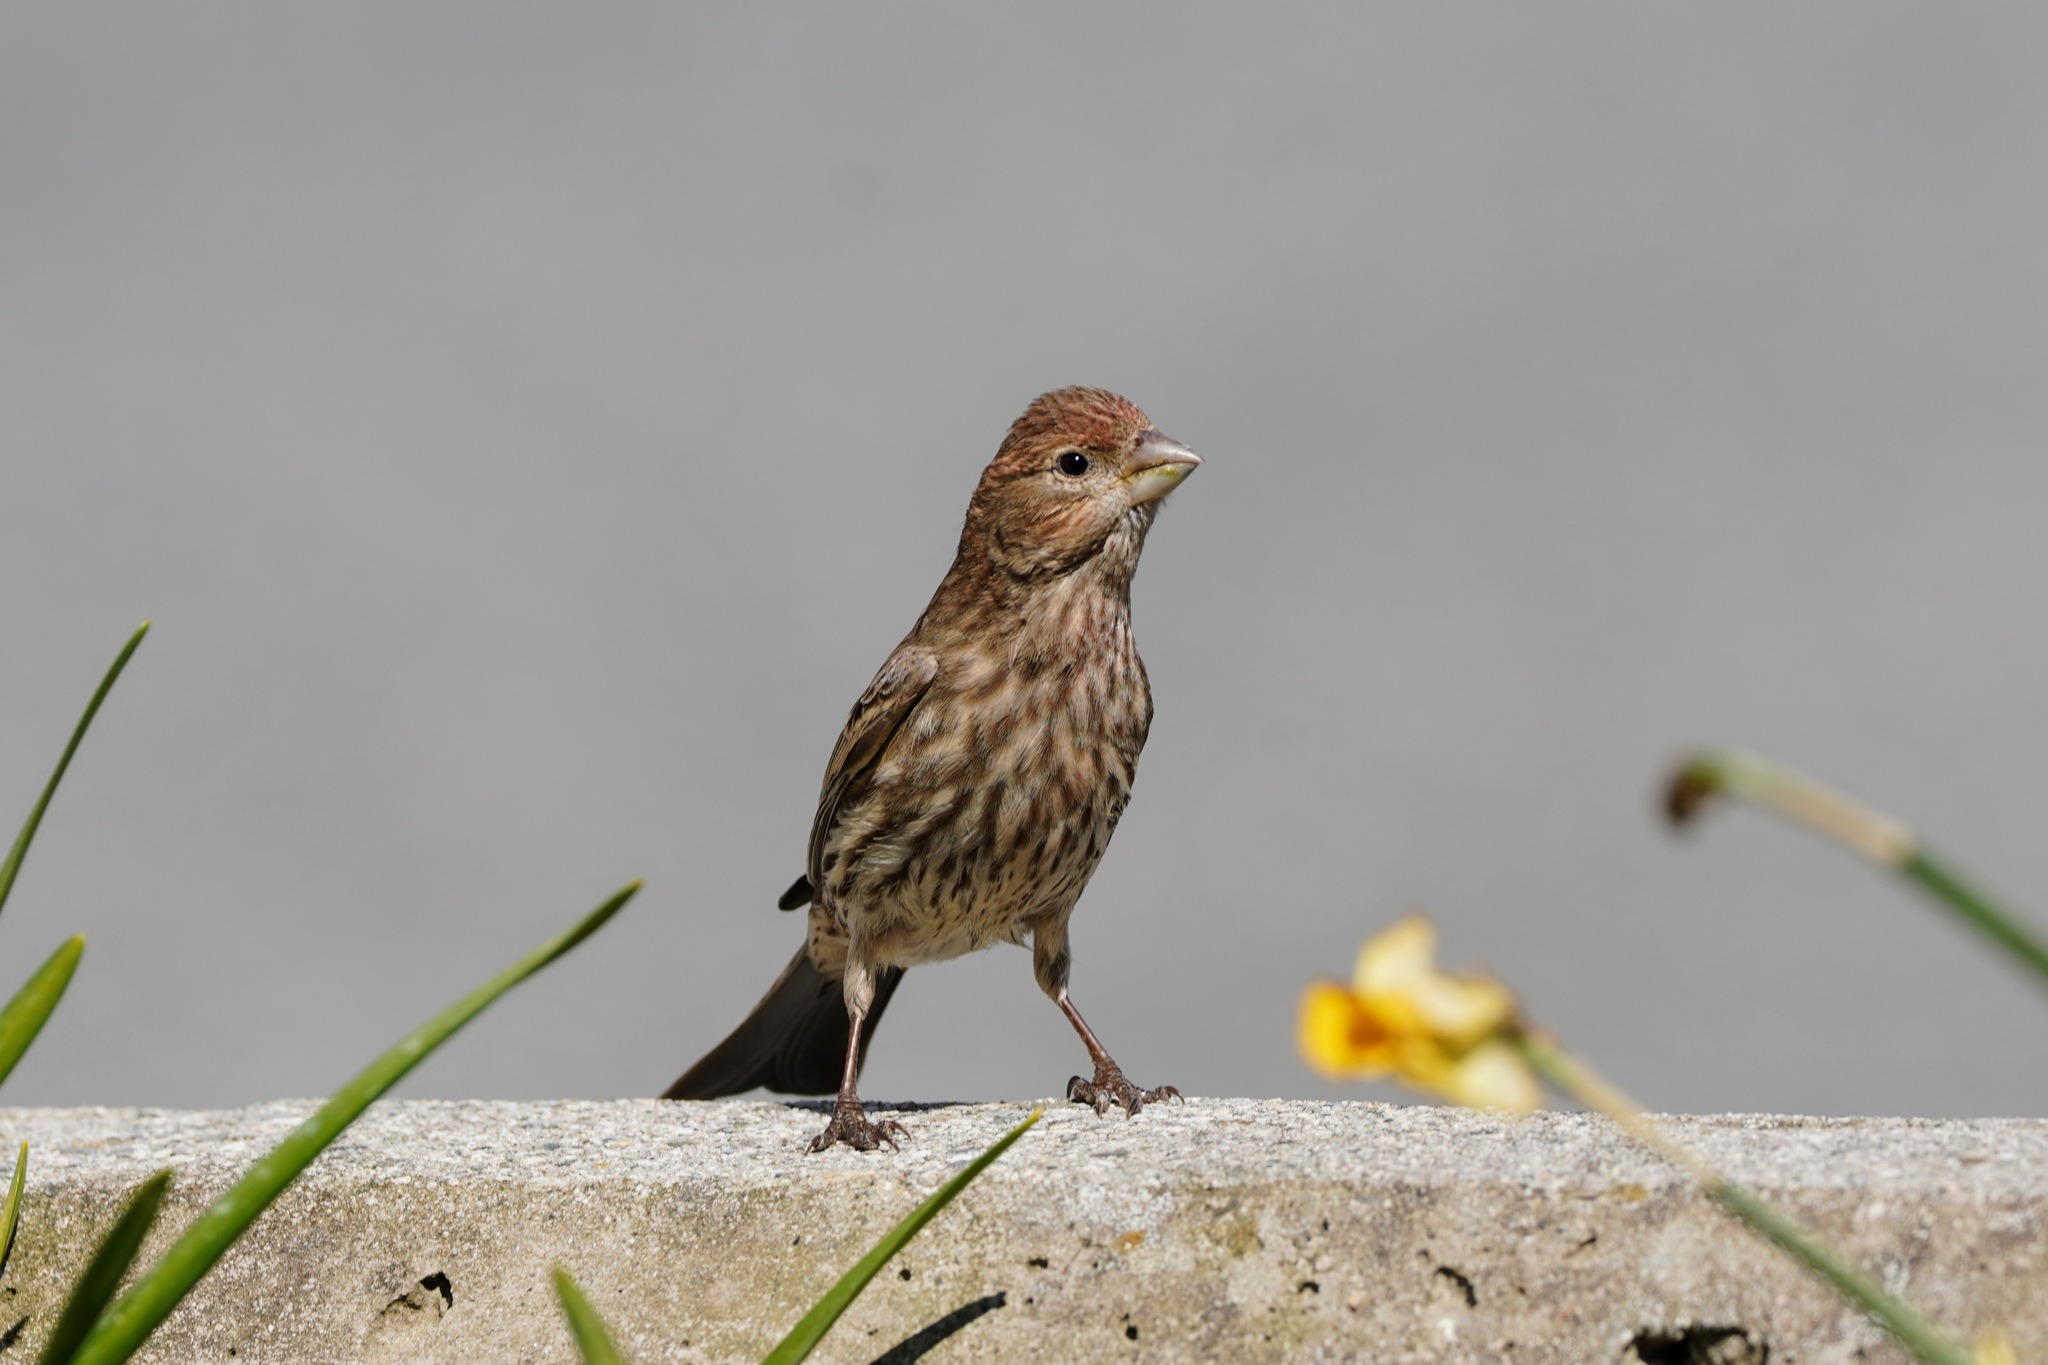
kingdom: Animalia
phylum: Chordata
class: Aves
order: Passeriformes
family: Fringillidae
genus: Haemorhous
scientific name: Haemorhous mexicanus
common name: House finch
